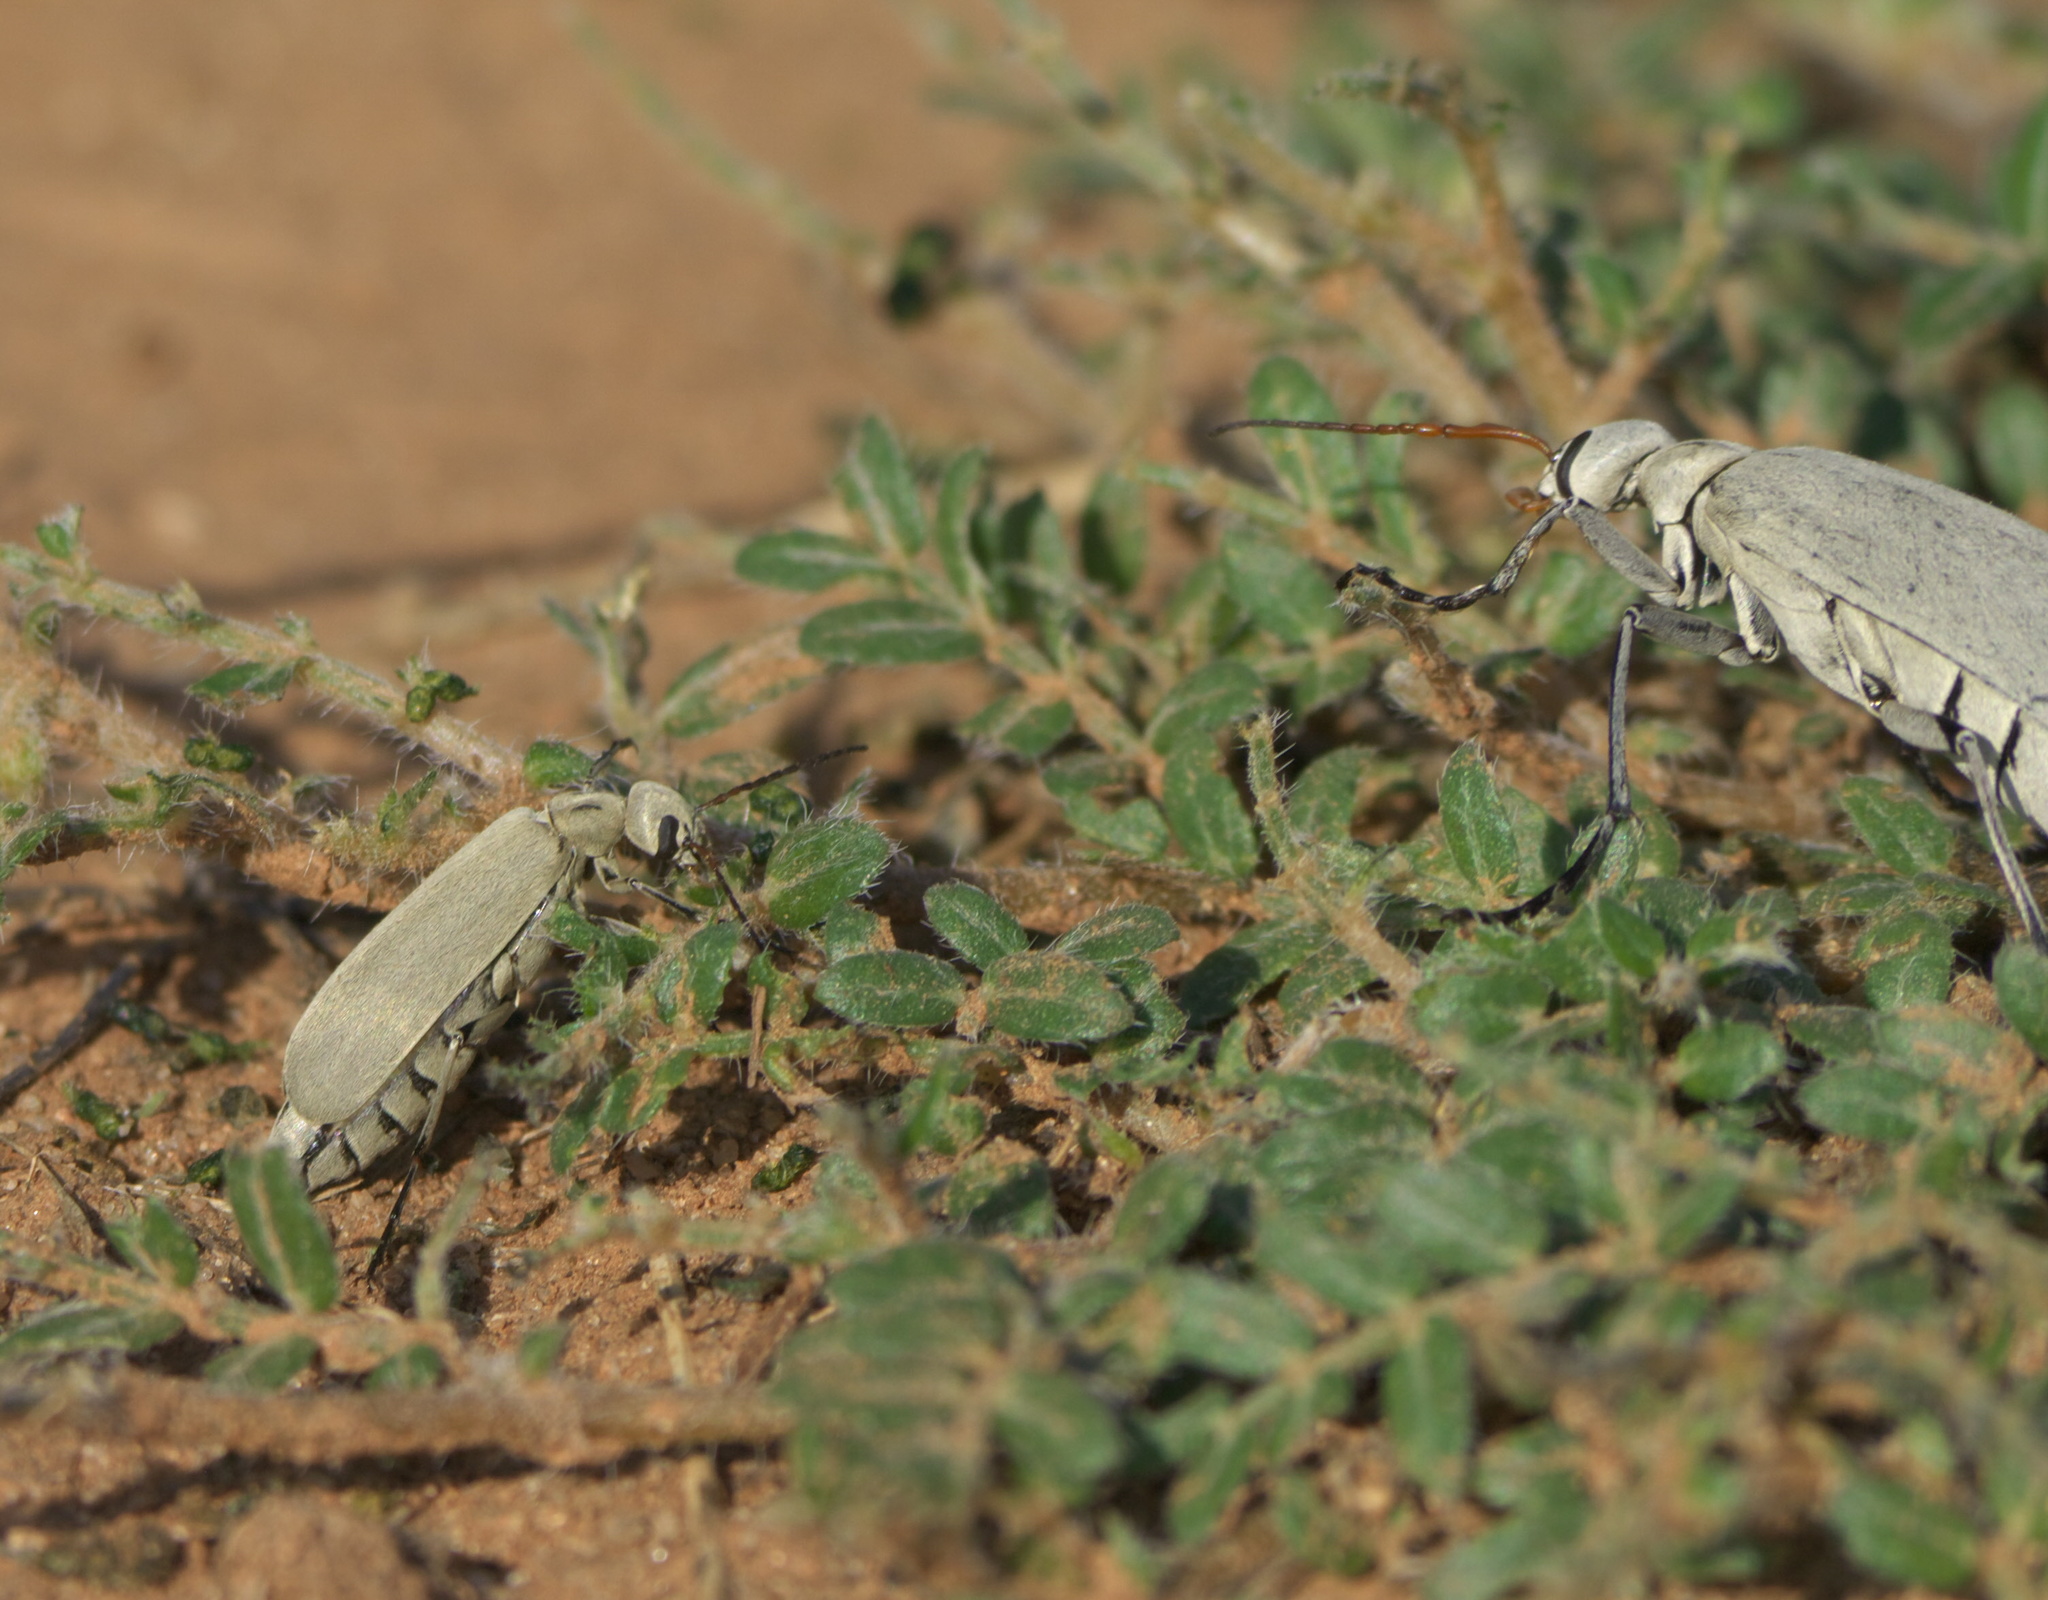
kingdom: Animalia
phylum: Arthropoda
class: Insecta
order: Coleoptera
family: Meloidae
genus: Epicauta
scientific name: Epicauta albida
